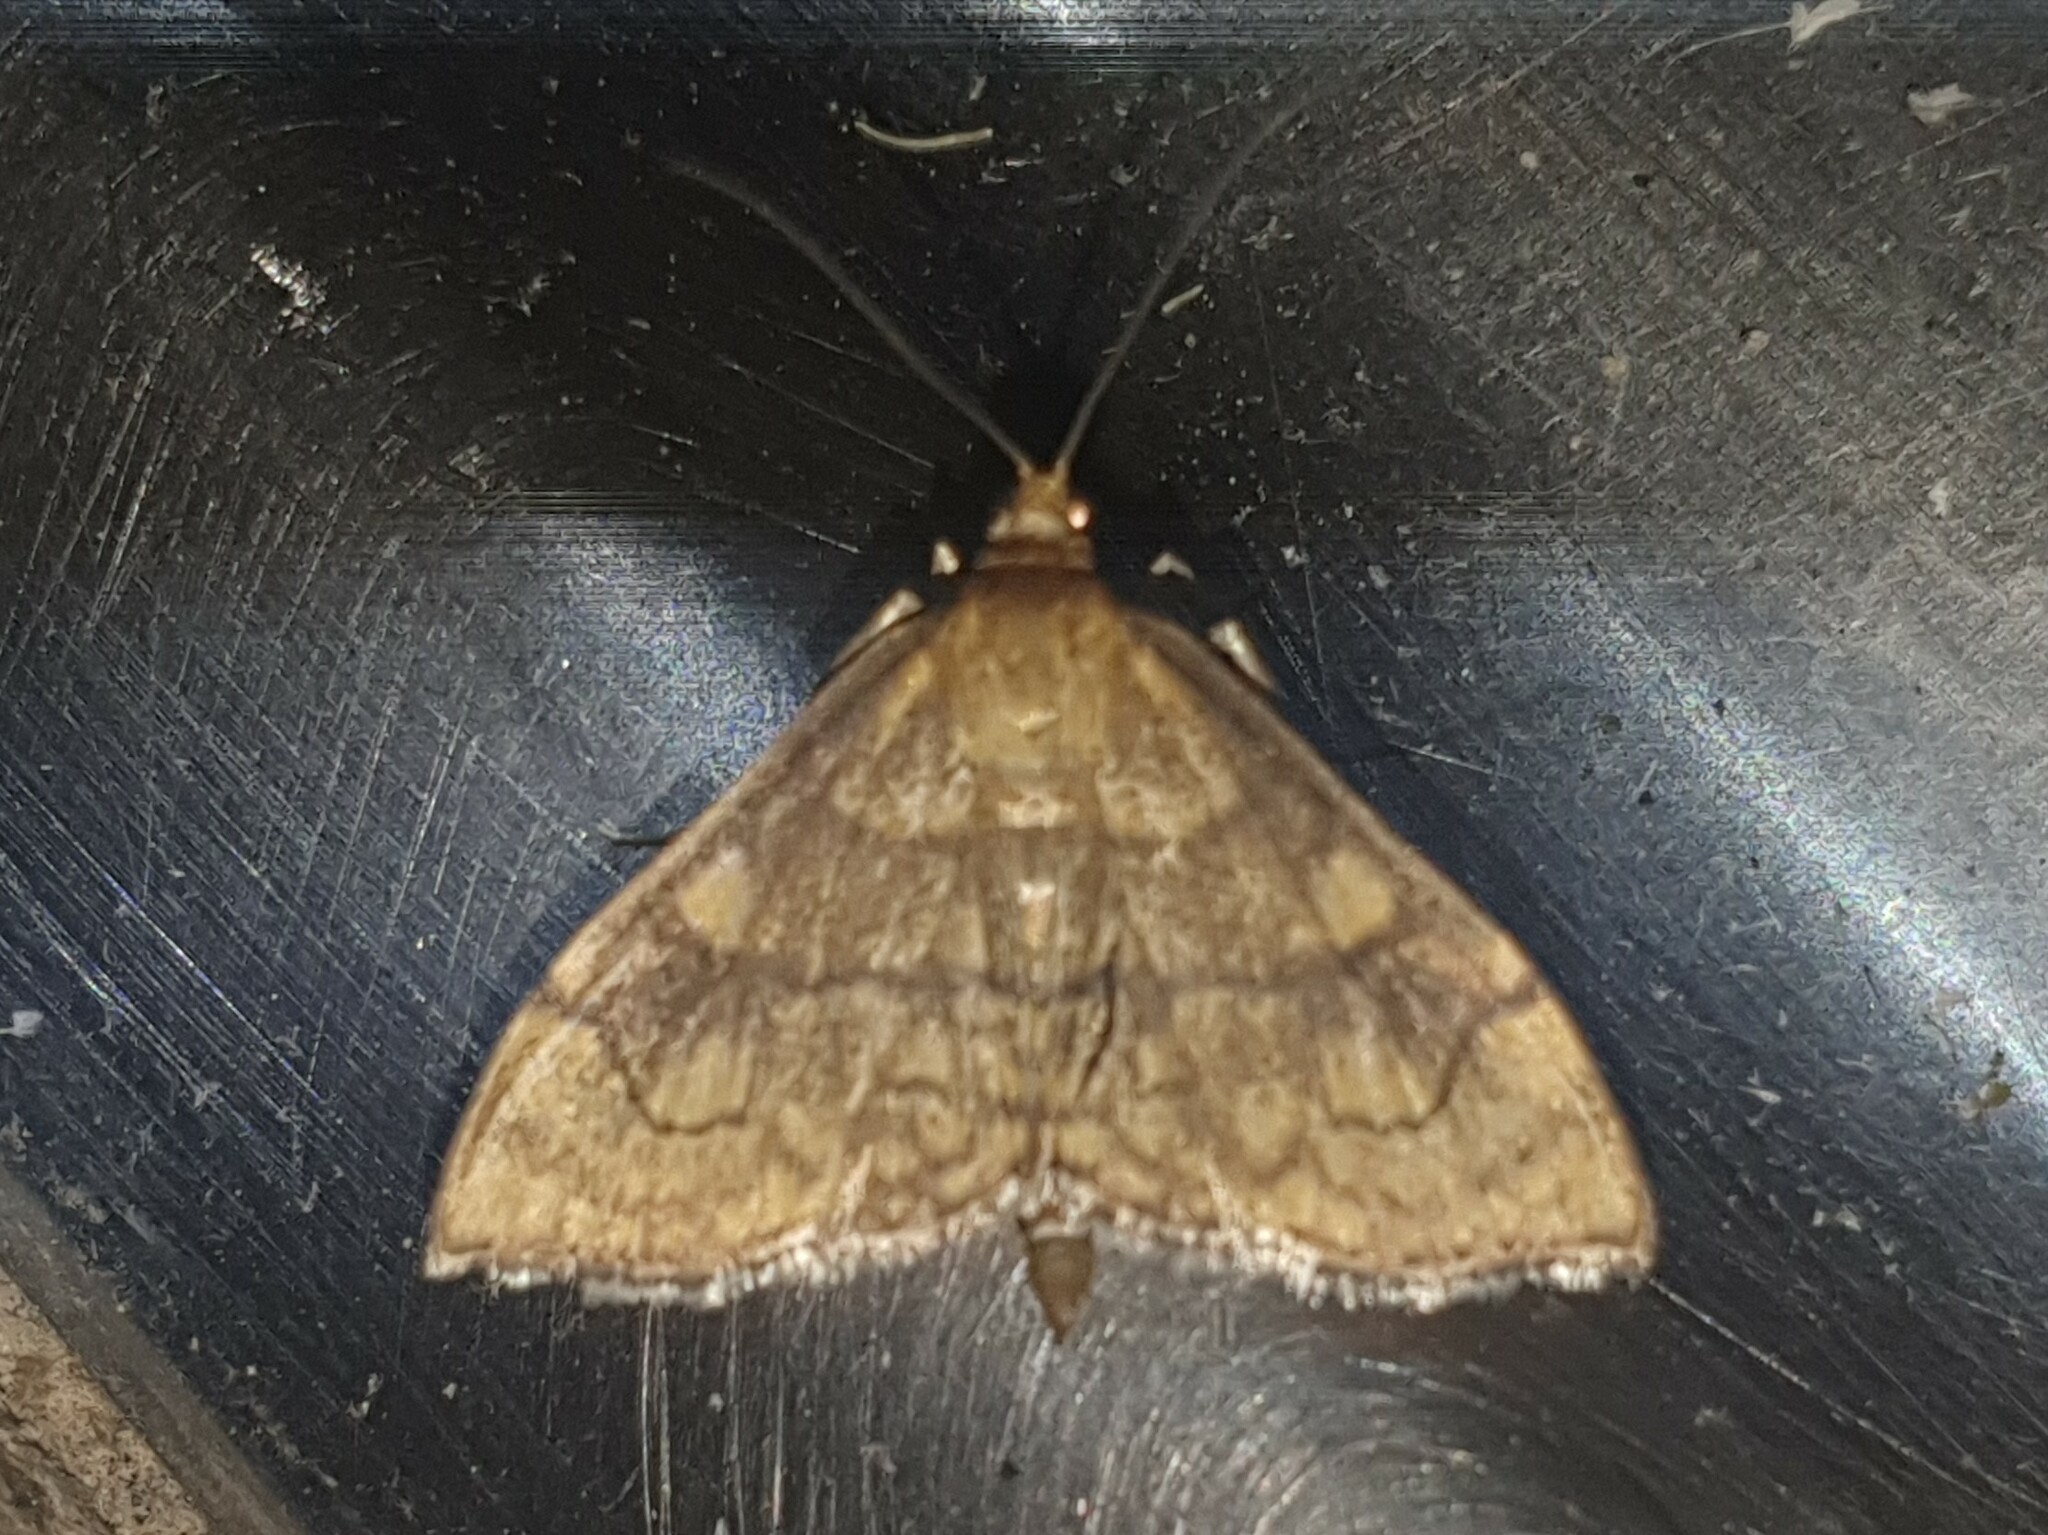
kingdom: Animalia
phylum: Arthropoda
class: Insecta
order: Lepidoptera
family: Crambidae
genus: Anania
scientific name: Anania verbascalis
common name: Golden pearl
